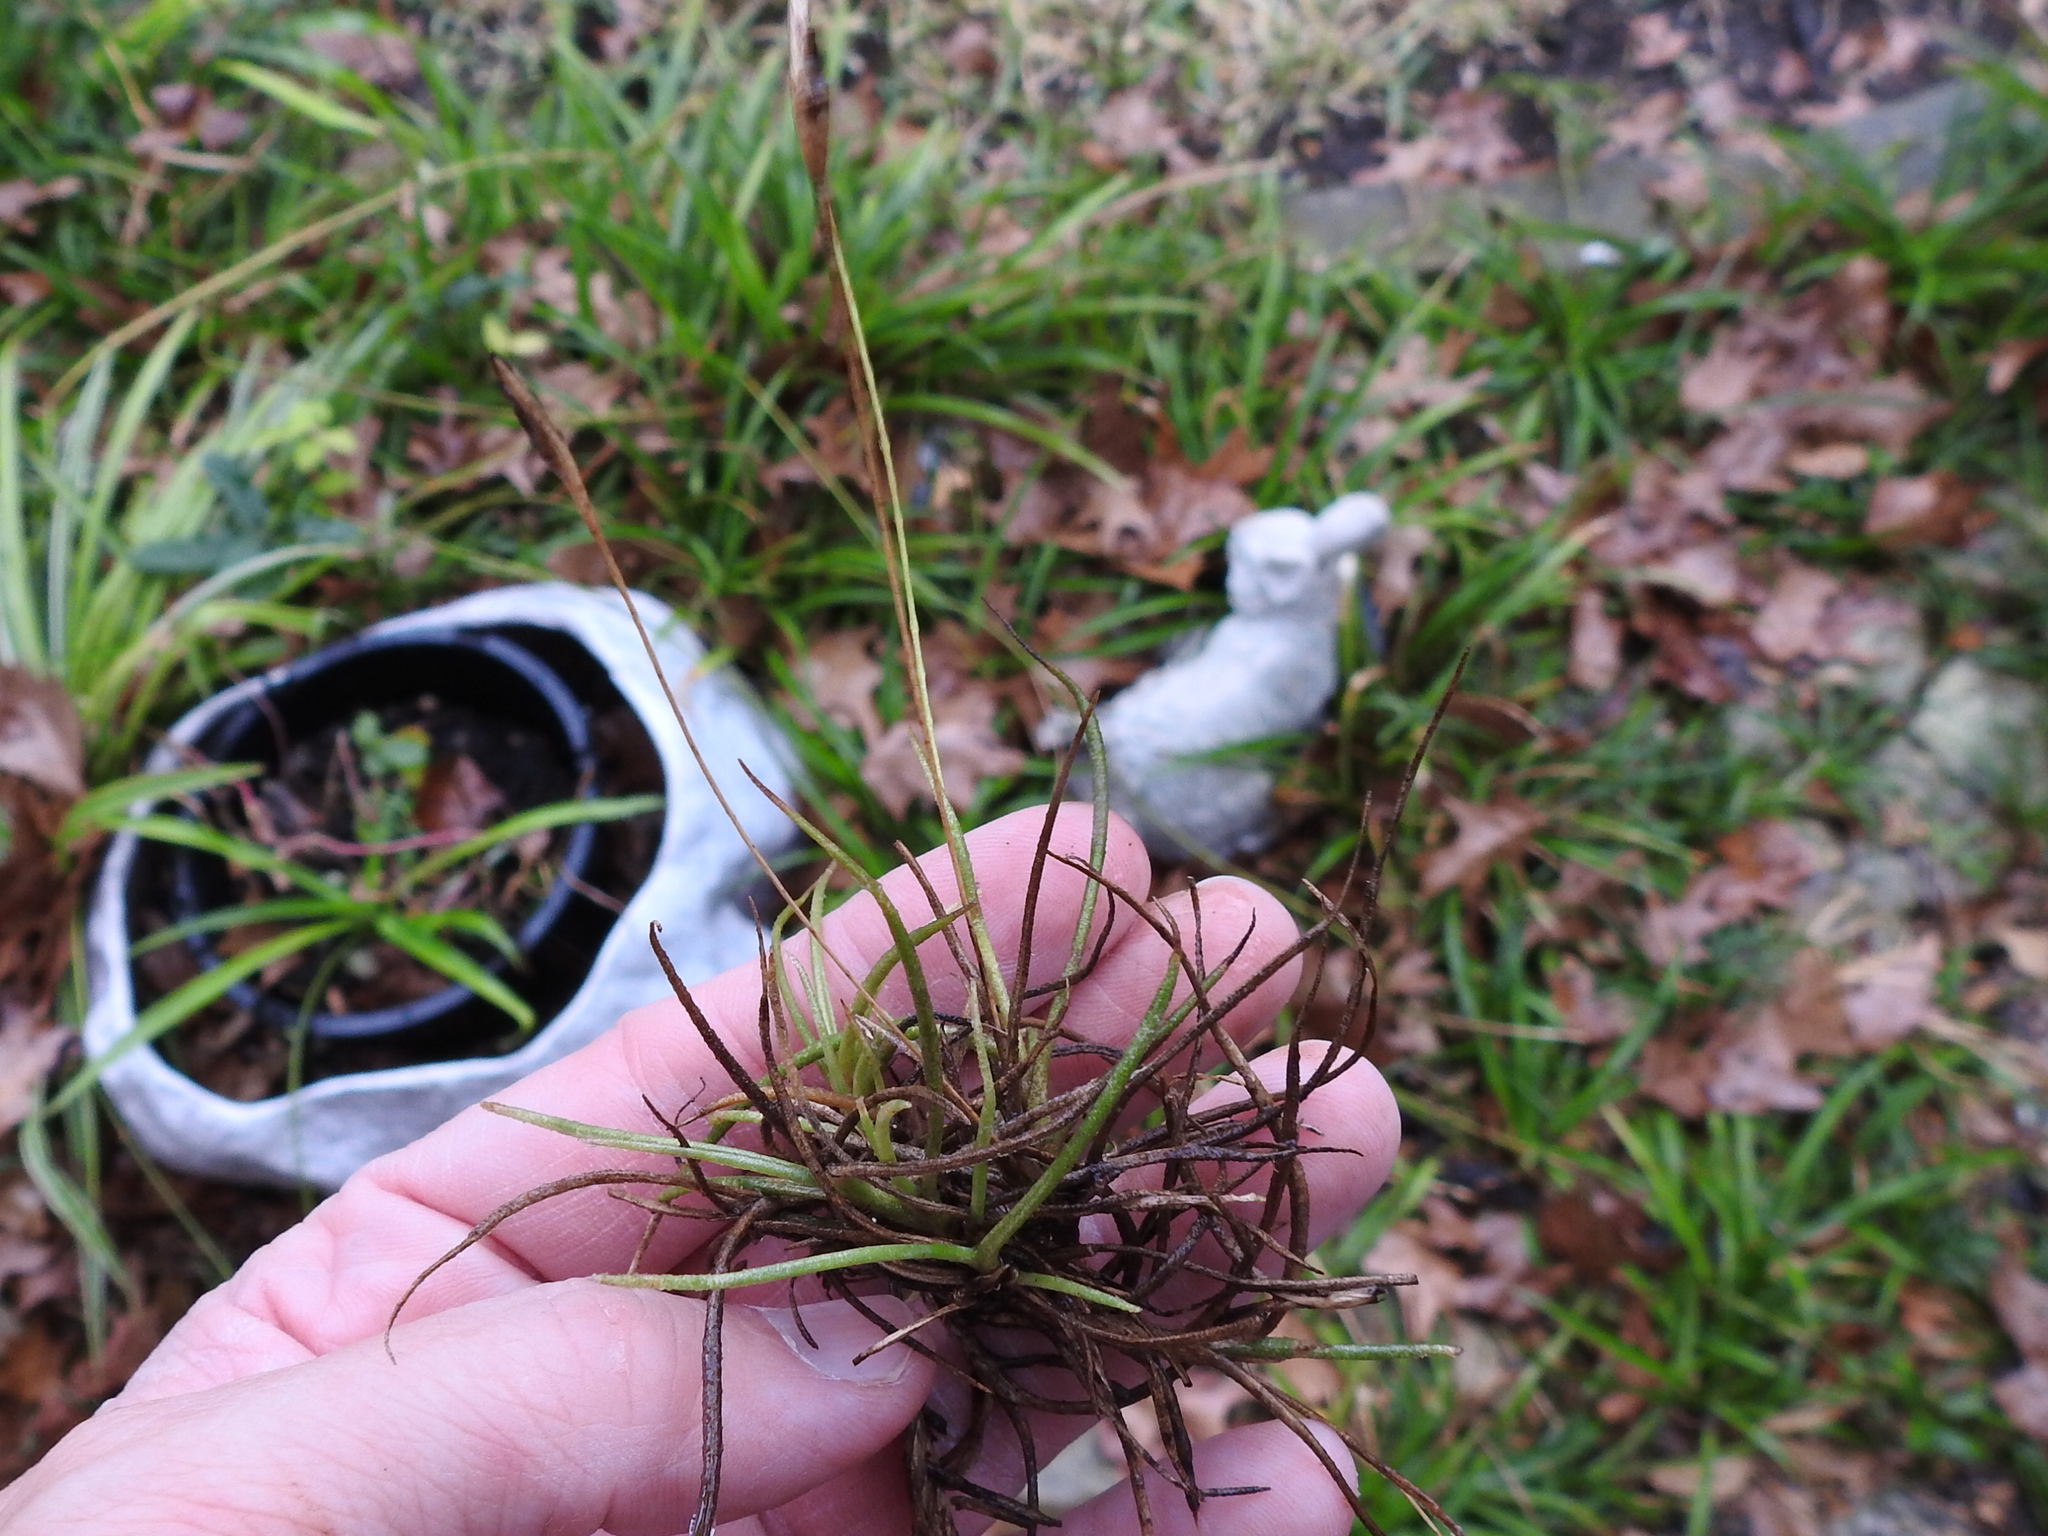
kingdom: Plantae
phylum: Tracheophyta
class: Liliopsida
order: Poales
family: Bromeliaceae
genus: Tillandsia
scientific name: Tillandsia recurvata
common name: Small ballmoss
